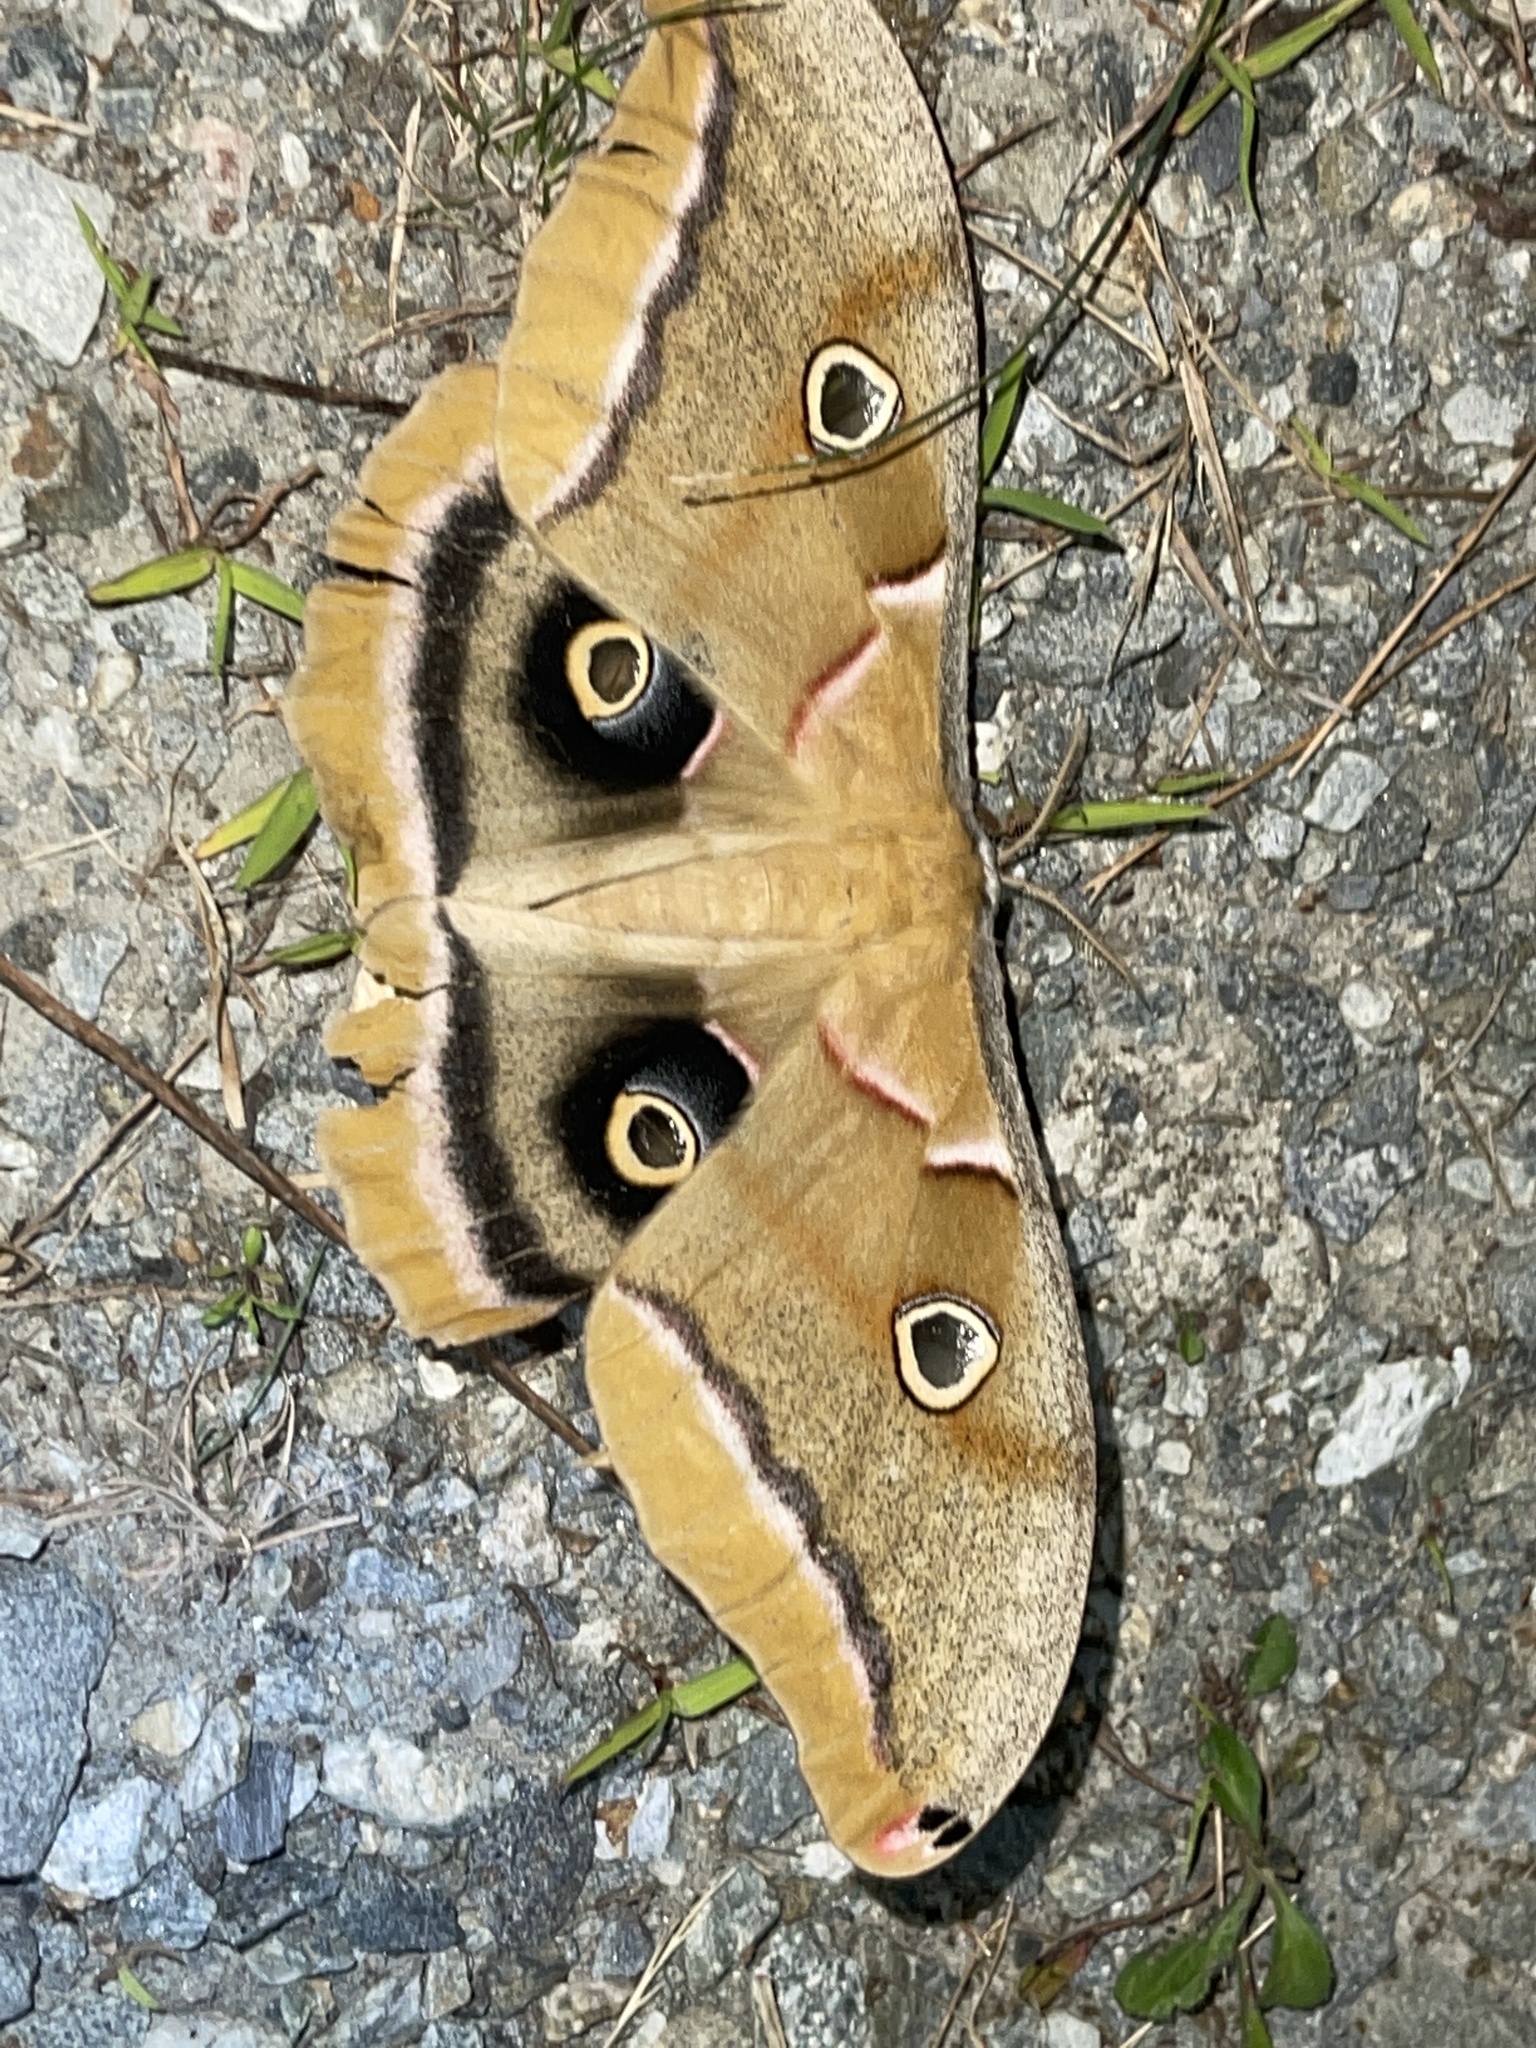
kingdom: Animalia
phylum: Arthropoda
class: Insecta
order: Lepidoptera
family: Saturniidae
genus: Antheraea
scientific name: Antheraea polyphemus
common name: Polyphemus moth
